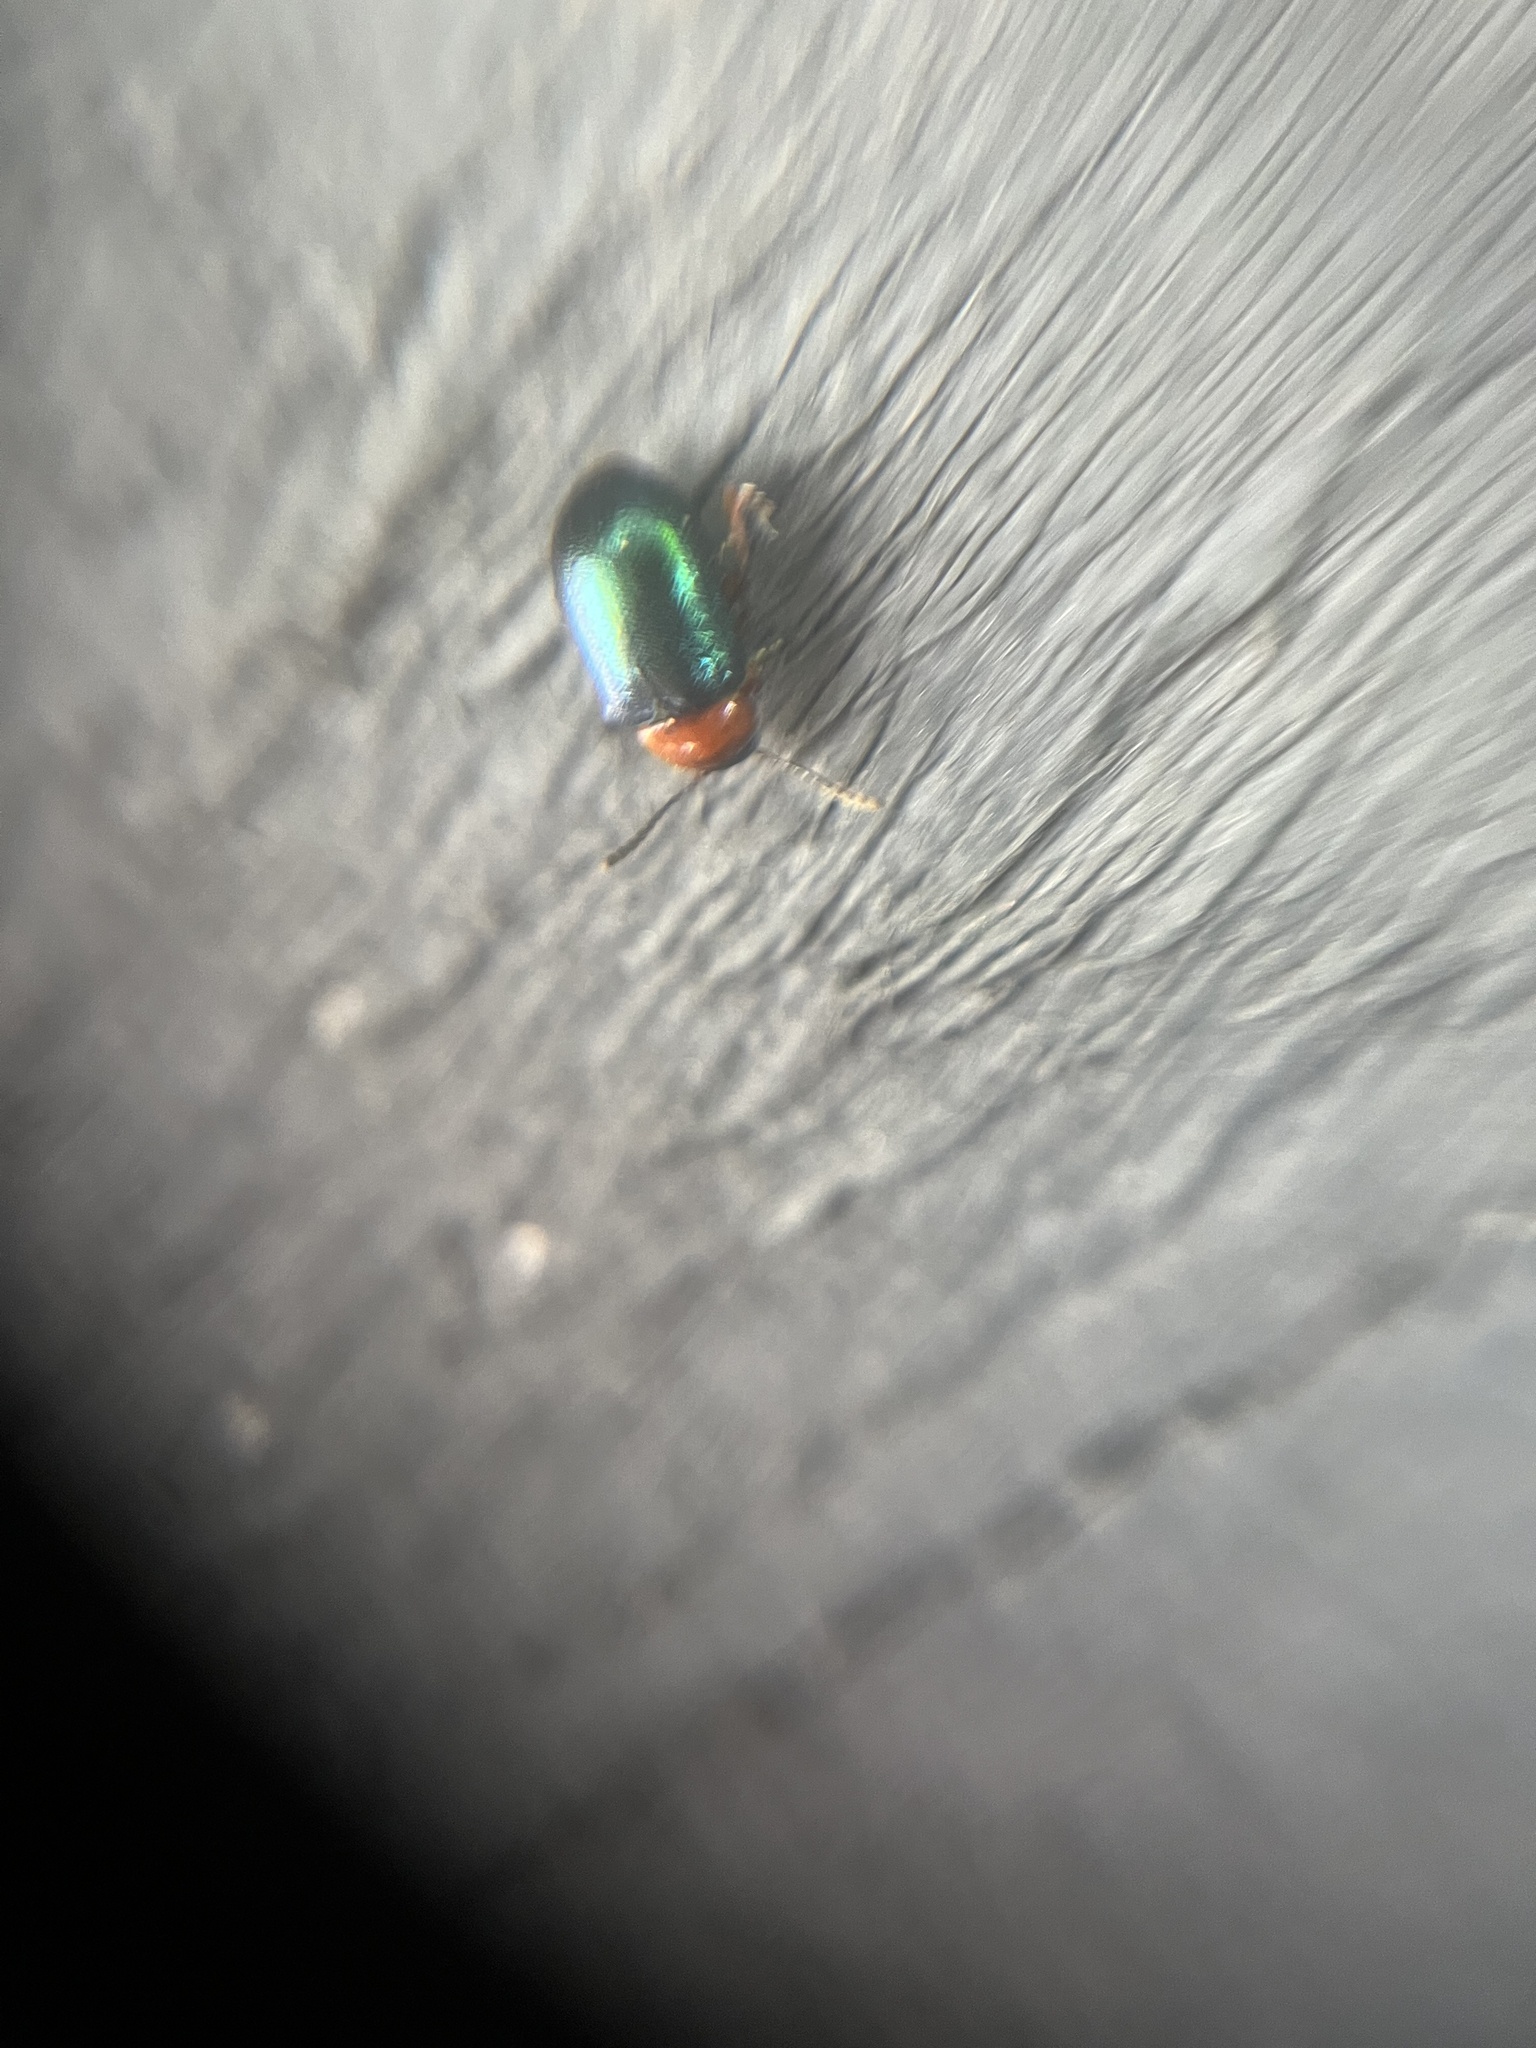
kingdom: Animalia
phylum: Arthropoda
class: Insecta
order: Coleoptera
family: Chrysomelidae
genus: Gastrophysa
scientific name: Gastrophysa polygoni
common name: Knotweed leaf beetle
